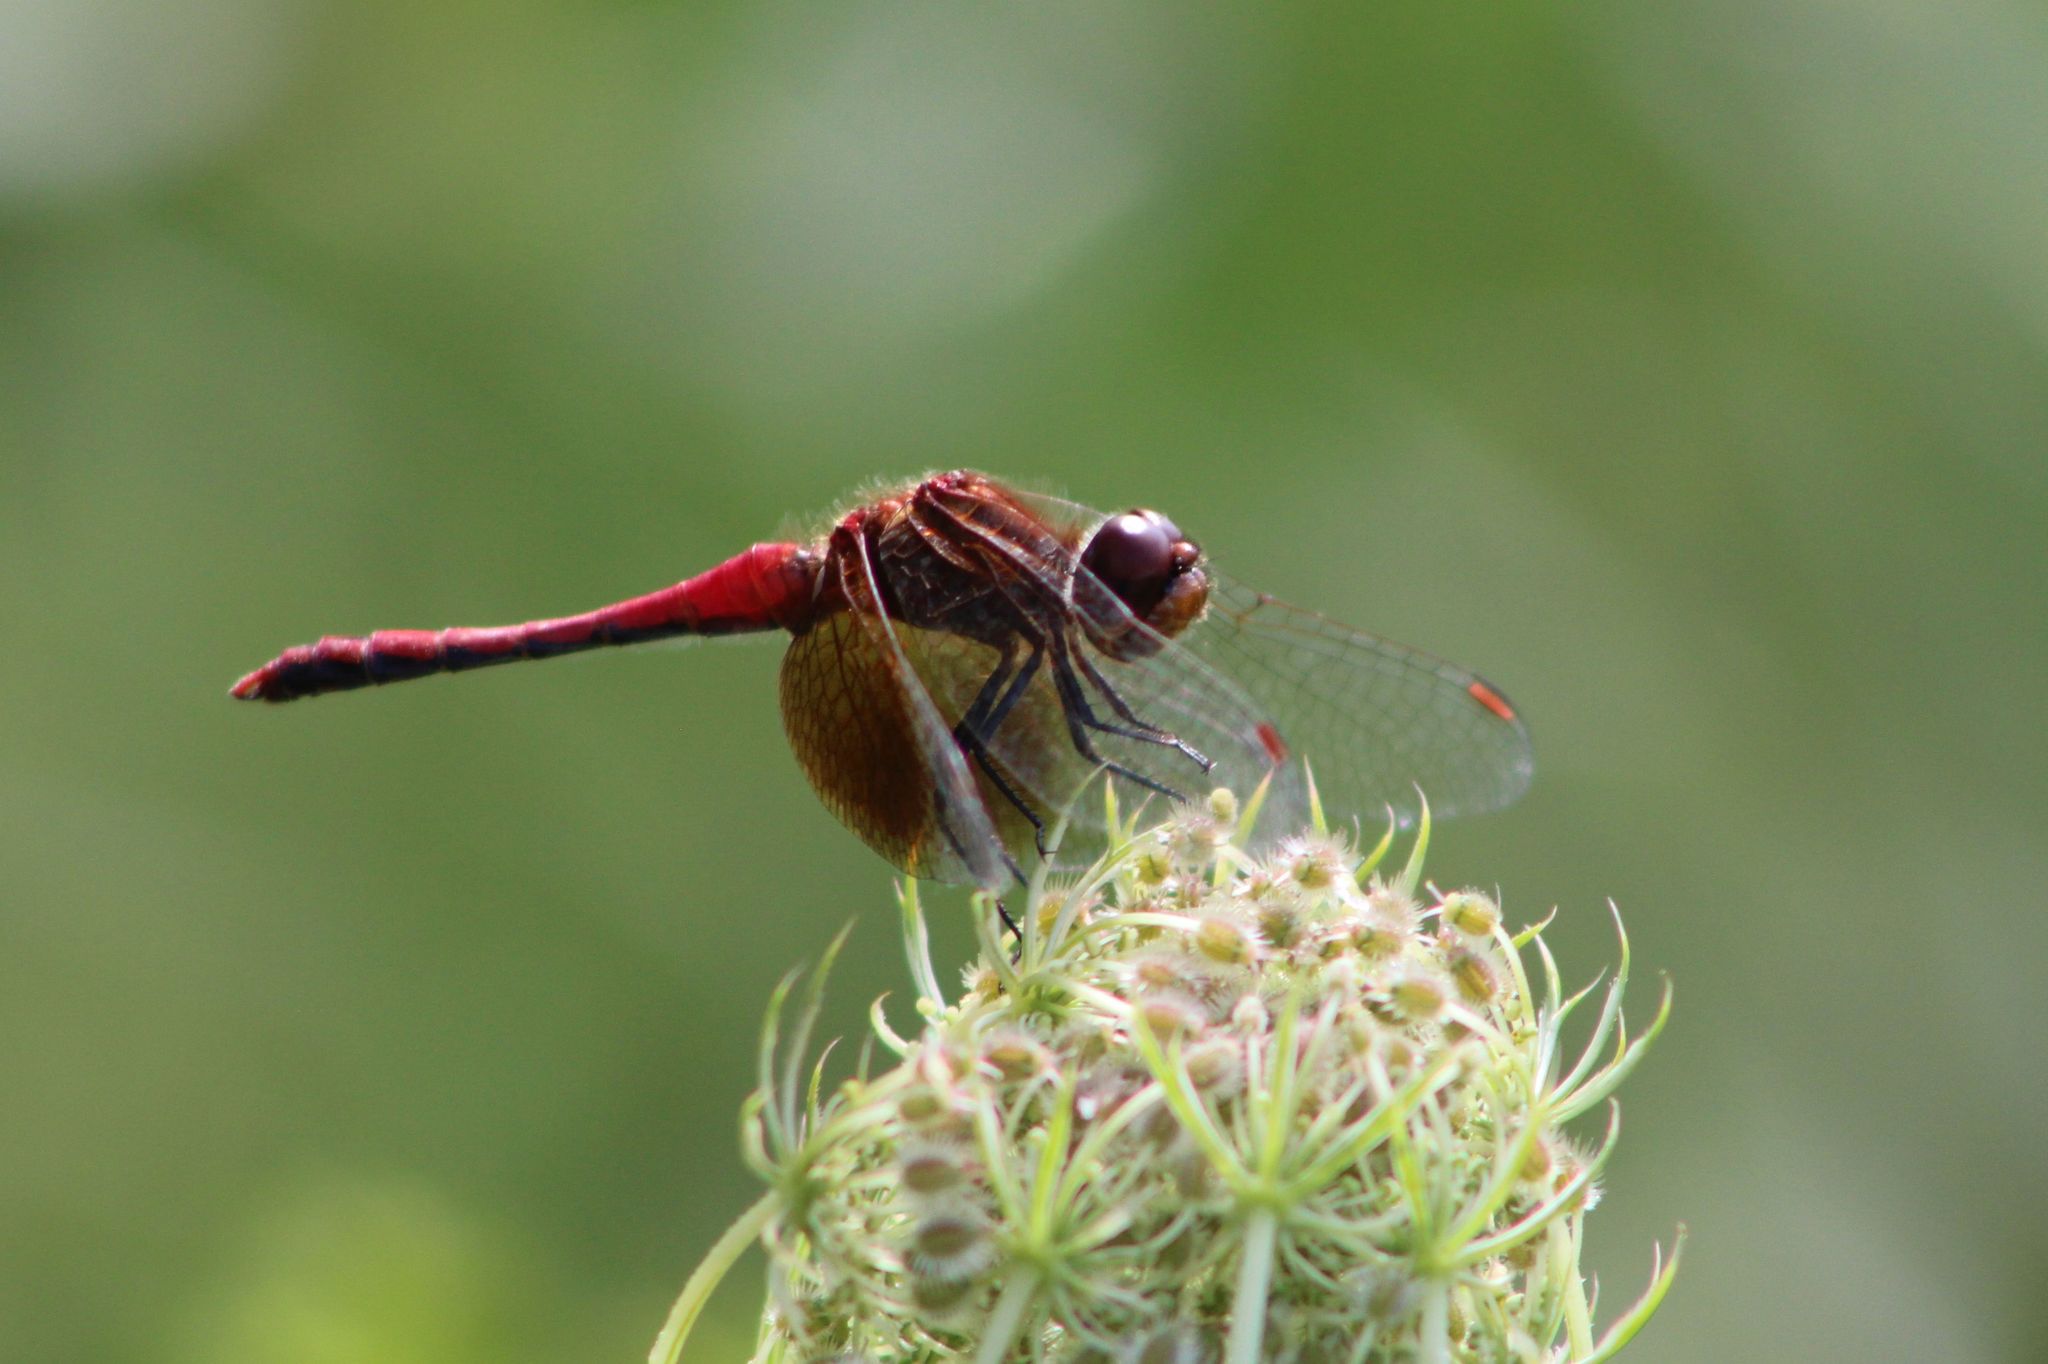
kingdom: Animalia
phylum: Arthropoda
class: Insecta
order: Odonata
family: Libellulidae
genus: Sympetrum
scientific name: Sympetrum semicinctum
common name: Band-winged meadowhawk
